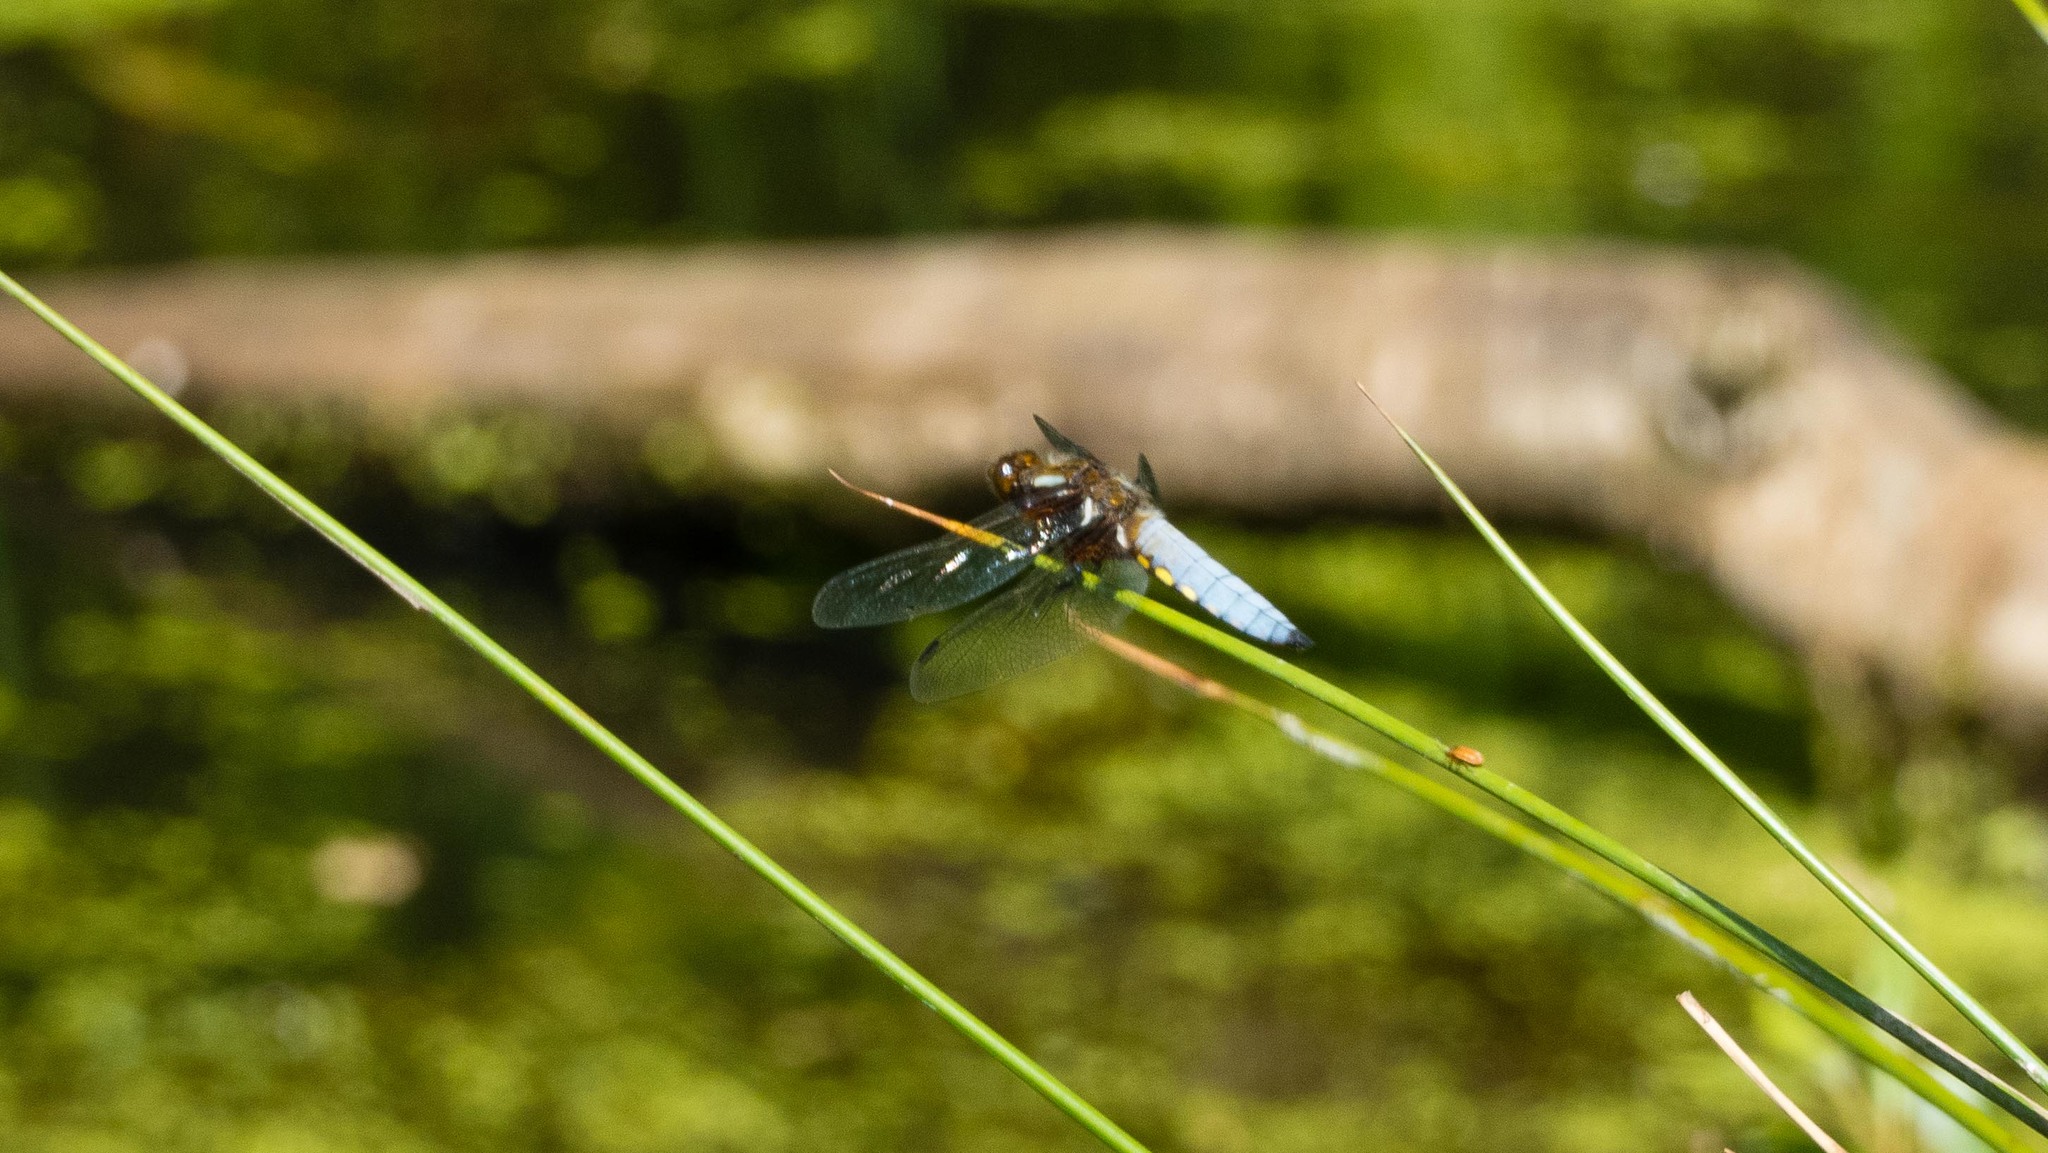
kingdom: Animalia
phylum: Arthropoda
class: Insecta
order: Odonata
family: Libellulidae
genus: Libellula
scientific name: Libellula depressa
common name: Broad-bodied chaser
